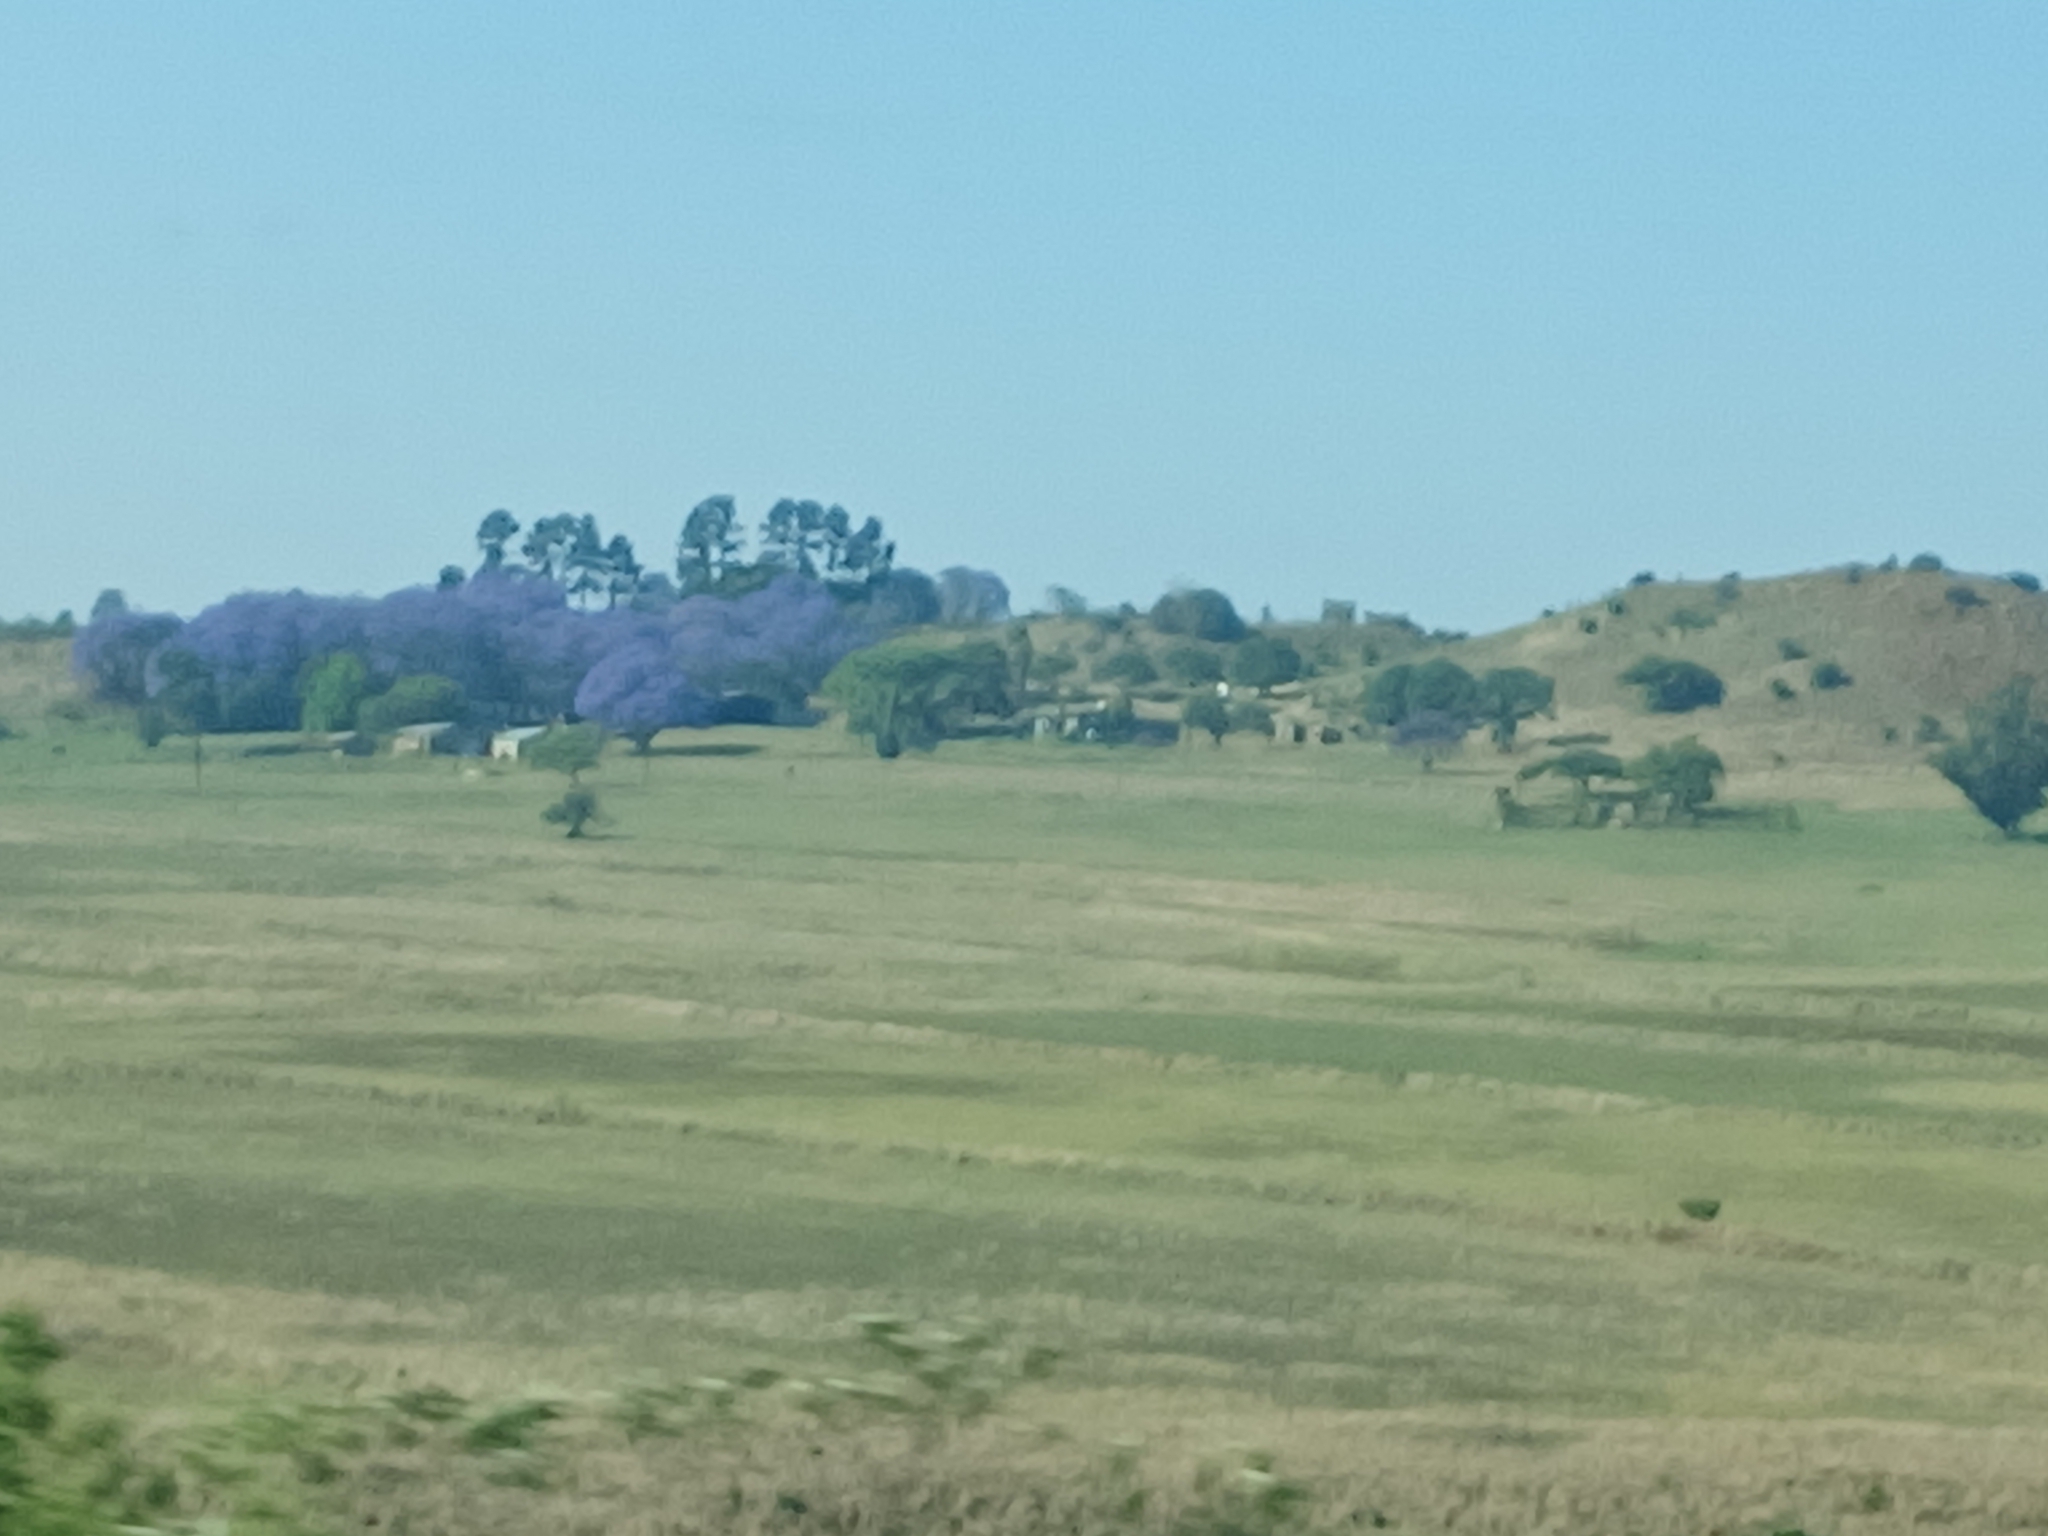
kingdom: Plantae
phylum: Tracheophyta
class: Magnoliopsida
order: Lamiales
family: Bignoniaceae
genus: Jacaranda
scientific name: Jacaranda mimosifolia
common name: Black poui
